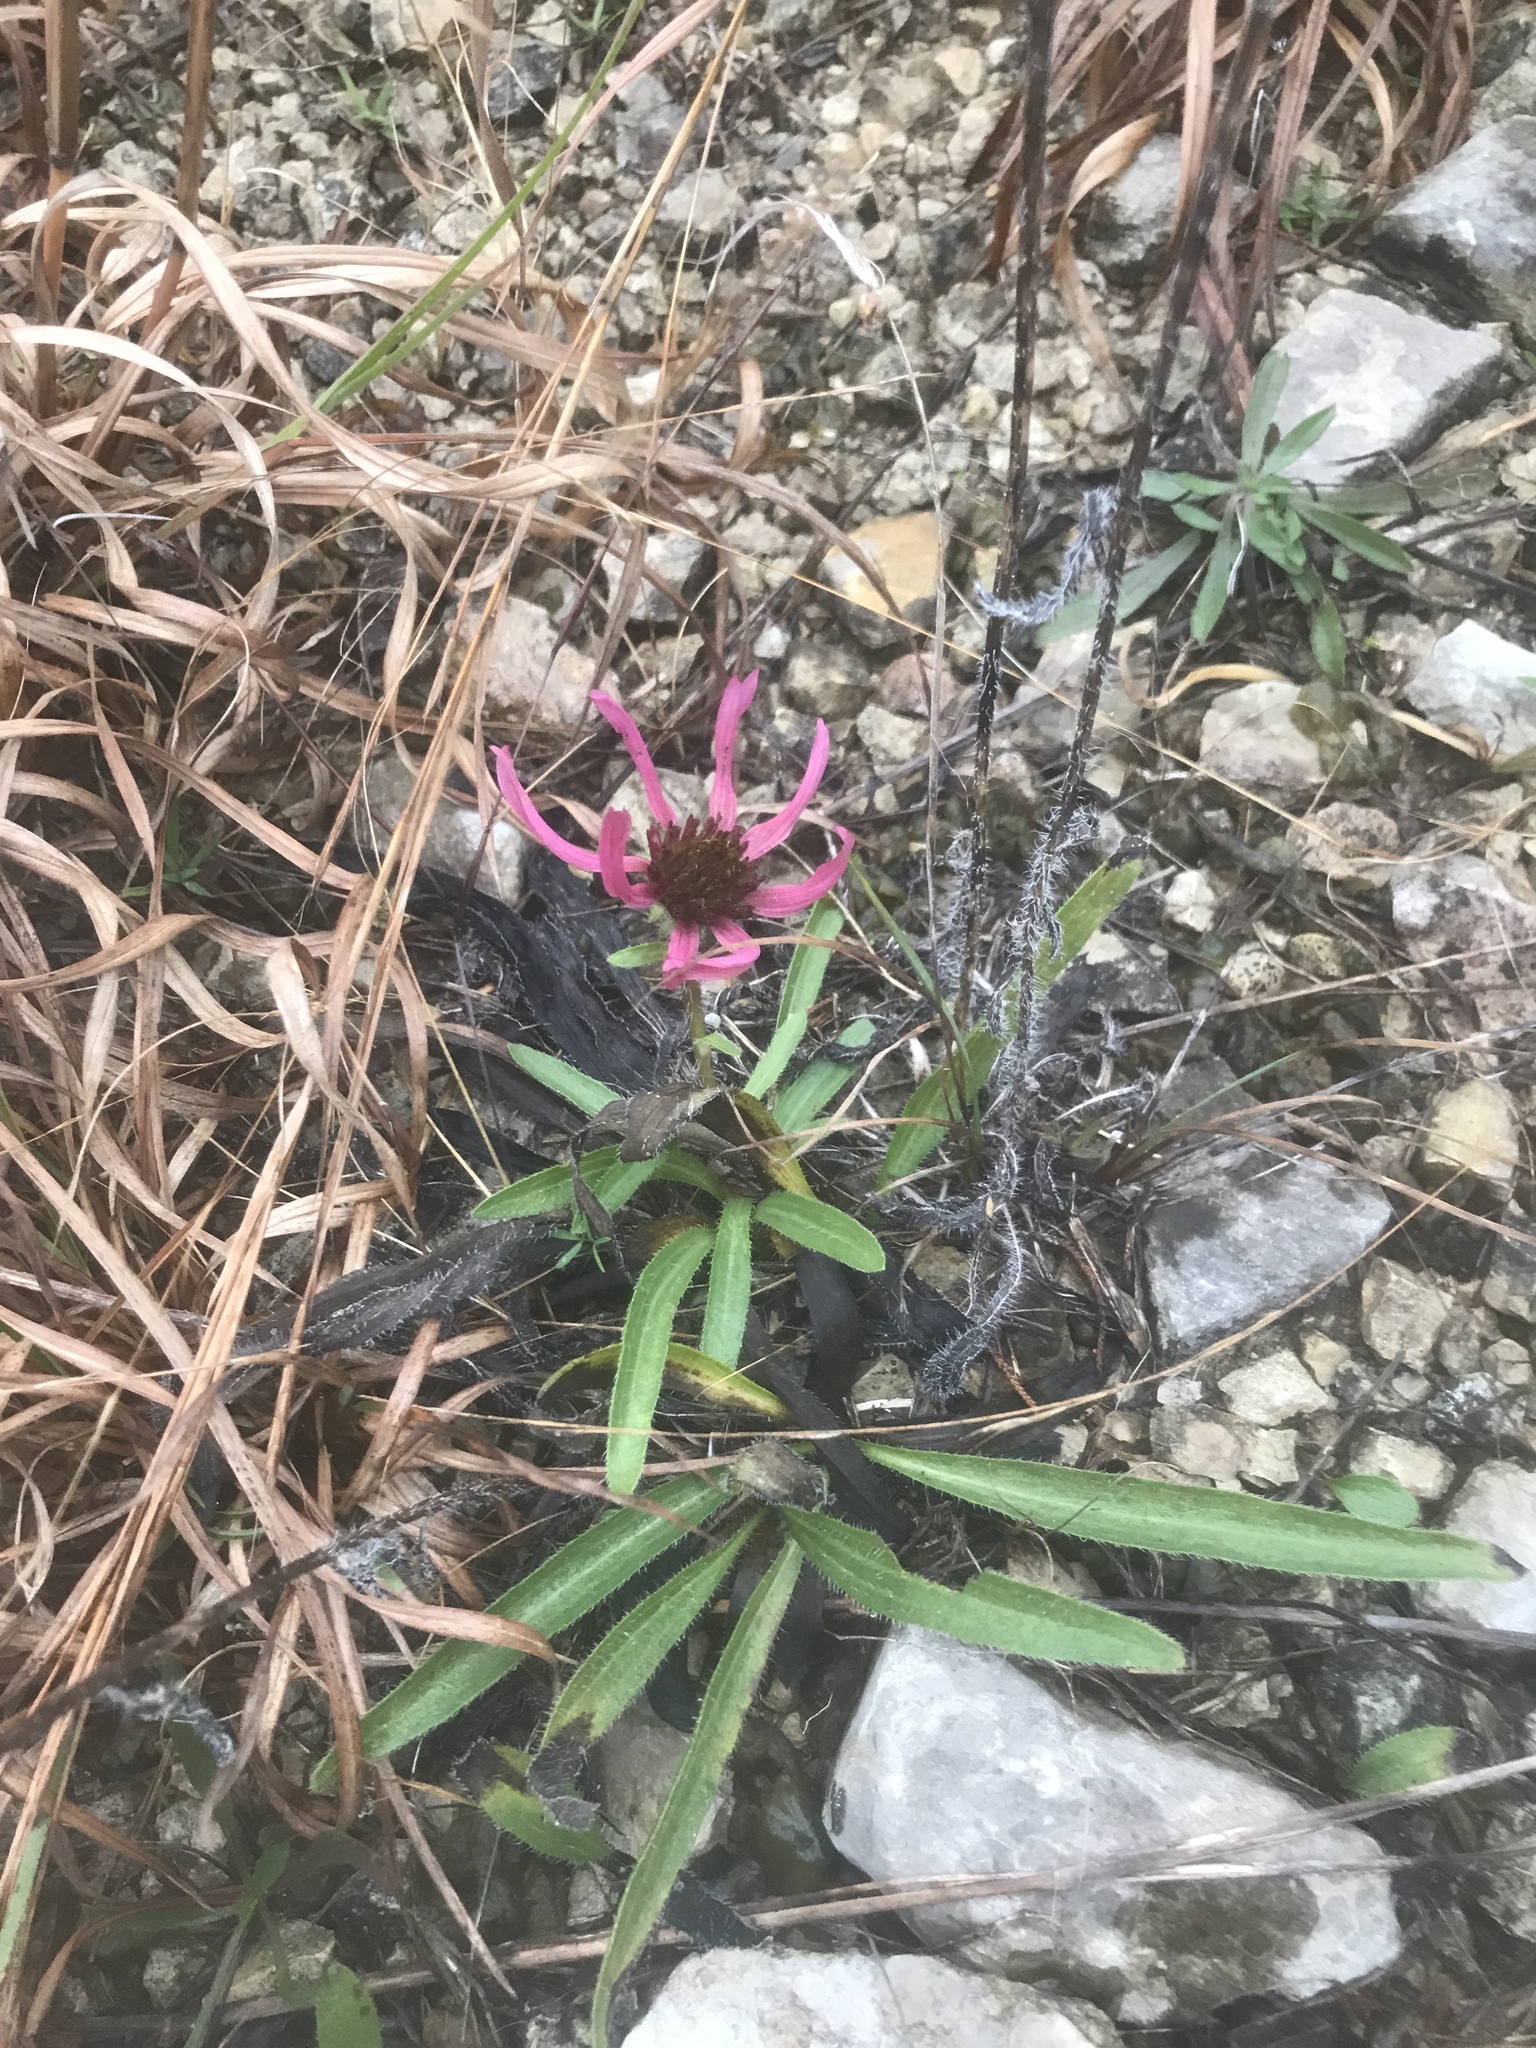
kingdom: Plantae
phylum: Tracheophyta
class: Magnoliopsida
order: Asterales
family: Asteraceae
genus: Echinacea
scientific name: Echinacea tennesseensis
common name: Tennessee purple-coneflower
